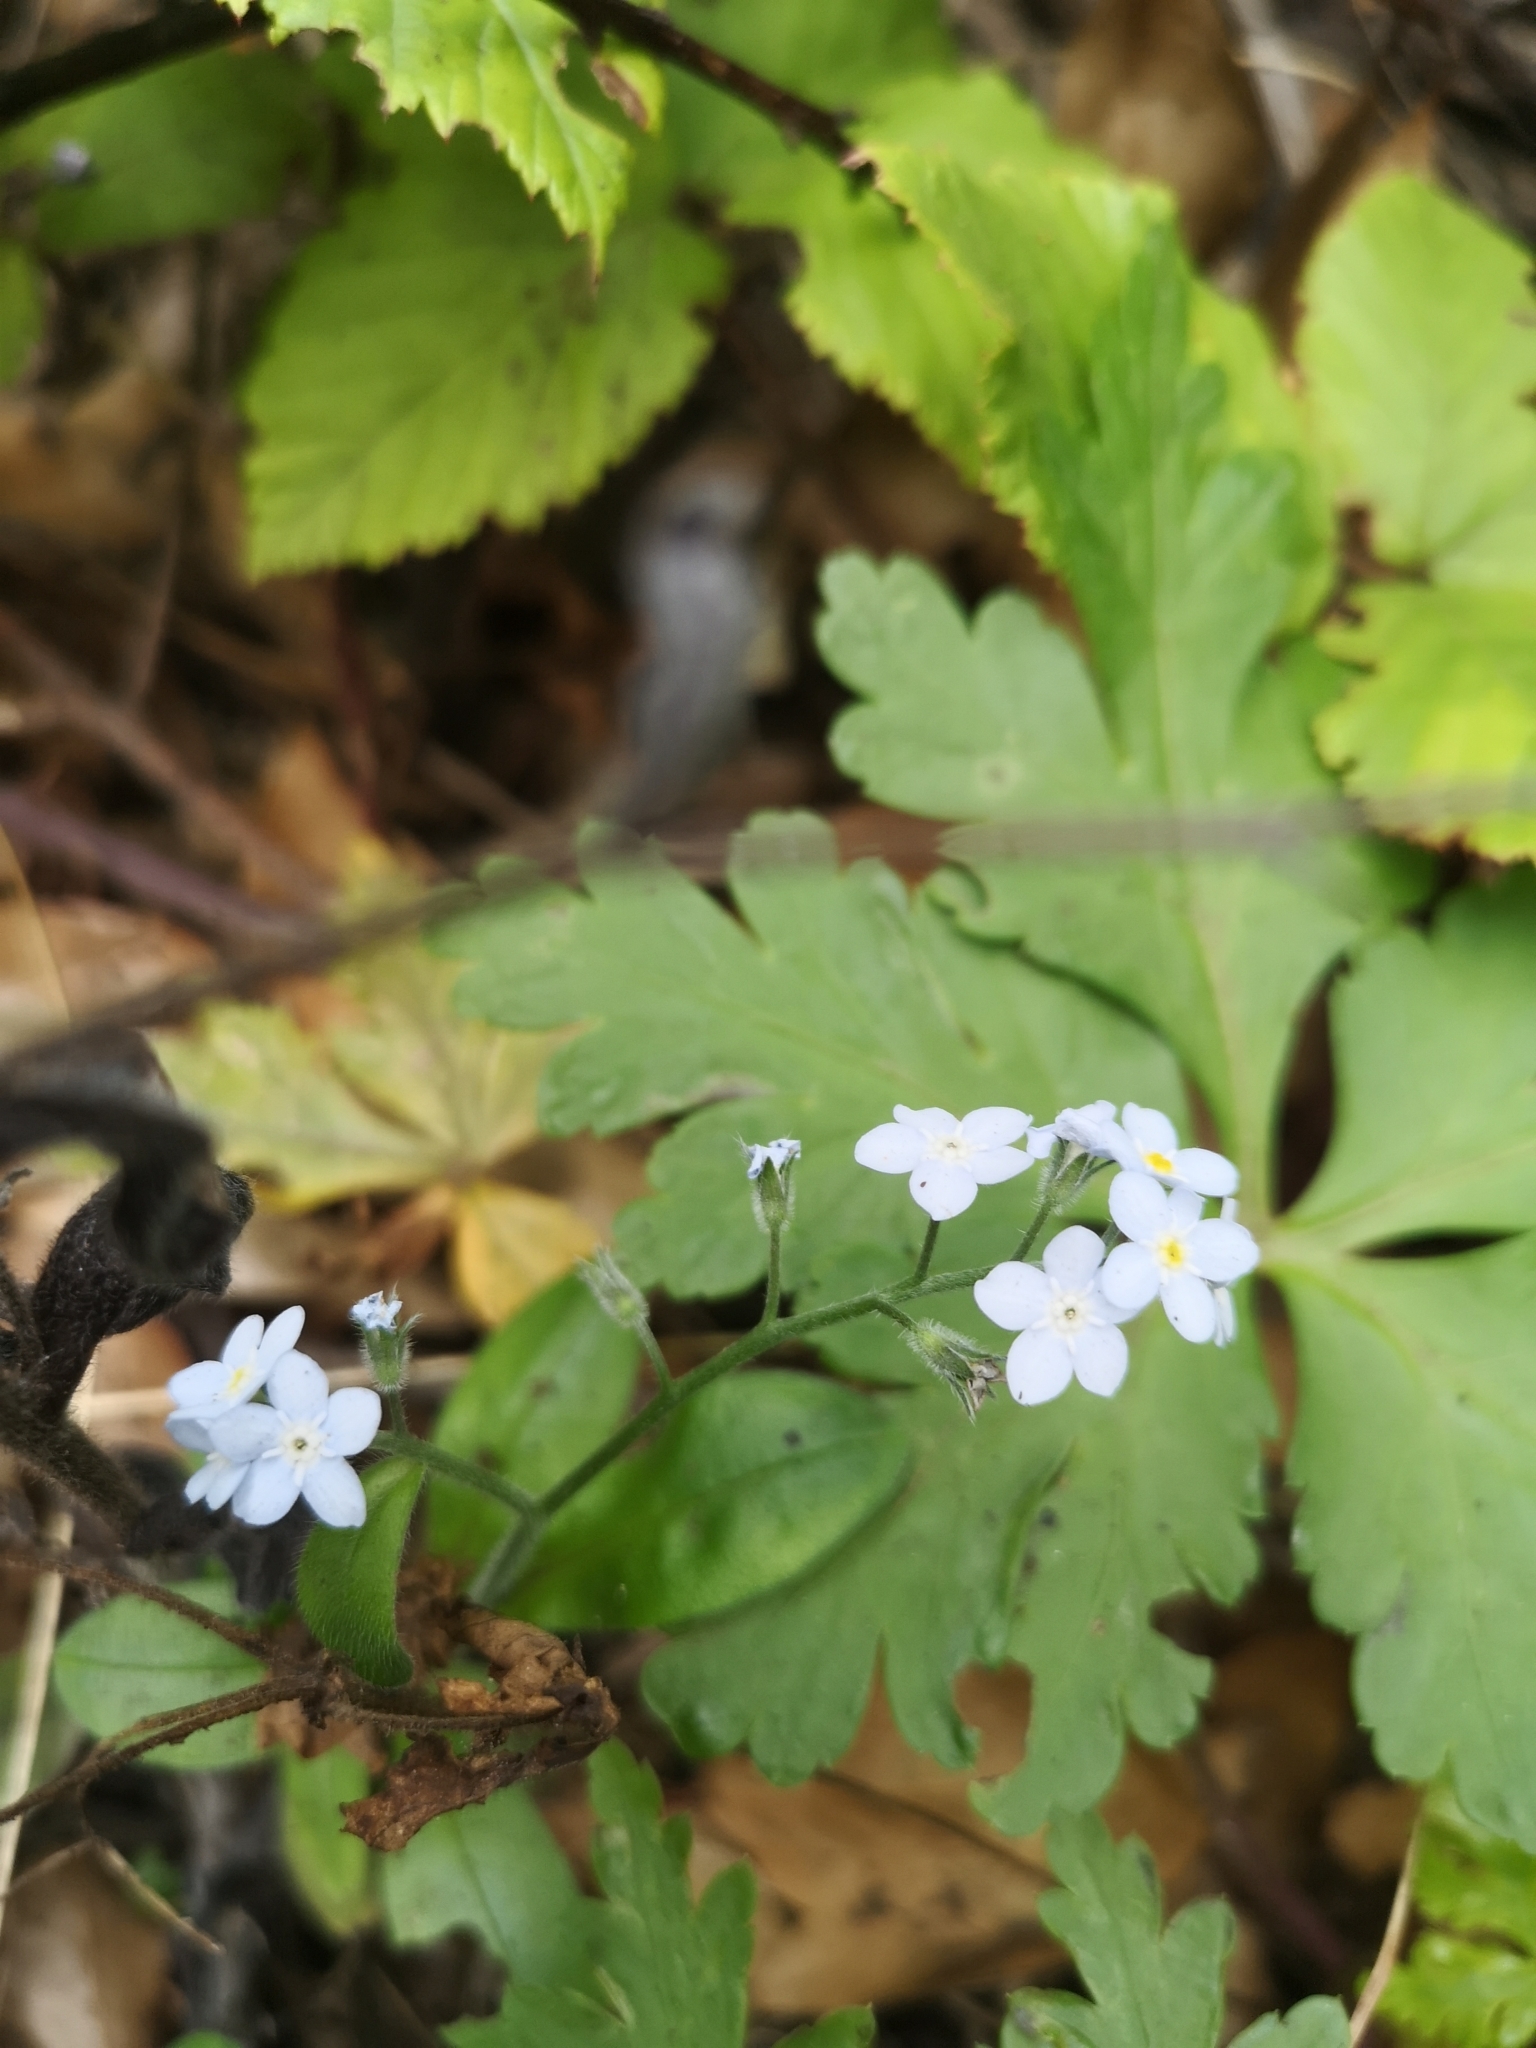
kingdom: Plantae
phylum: Tracheophyta
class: Magnoliopsida
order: Boraginales
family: Boraginaceae
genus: Myosotis
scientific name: Myosotis latifolia
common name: Broadleaf forget-me-not
